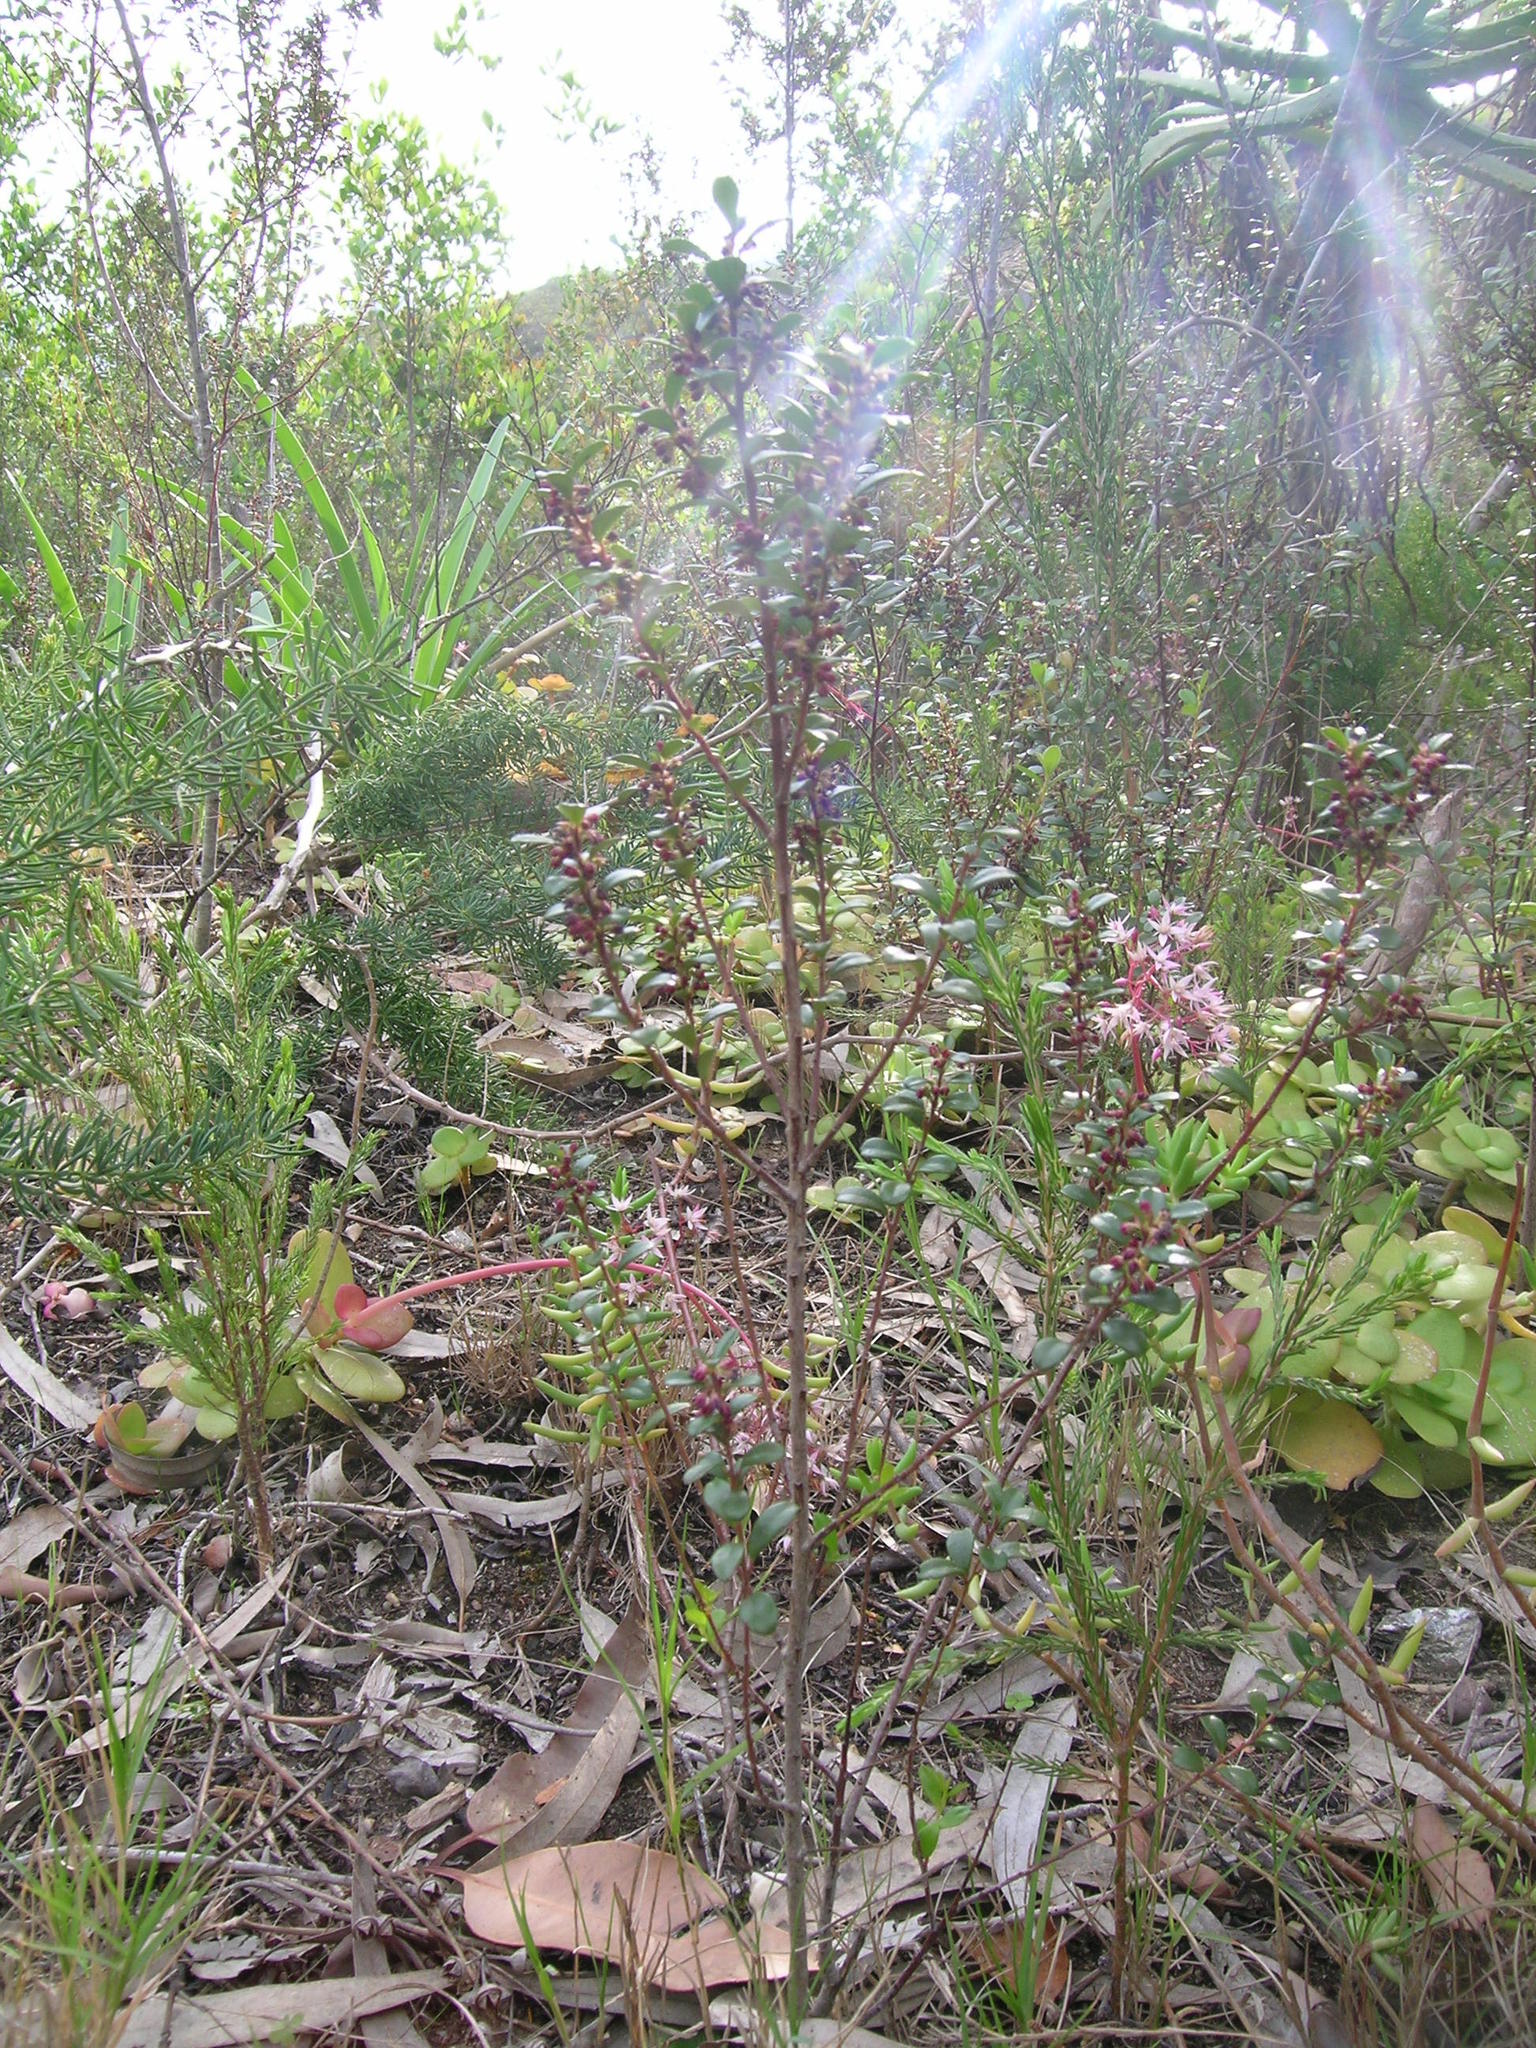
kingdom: Plantae
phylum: Tracheophyta
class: Magnoliopsida
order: Ericales
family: Primulaceae
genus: Myrsine
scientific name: Myrsine africana
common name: African-boxwood
